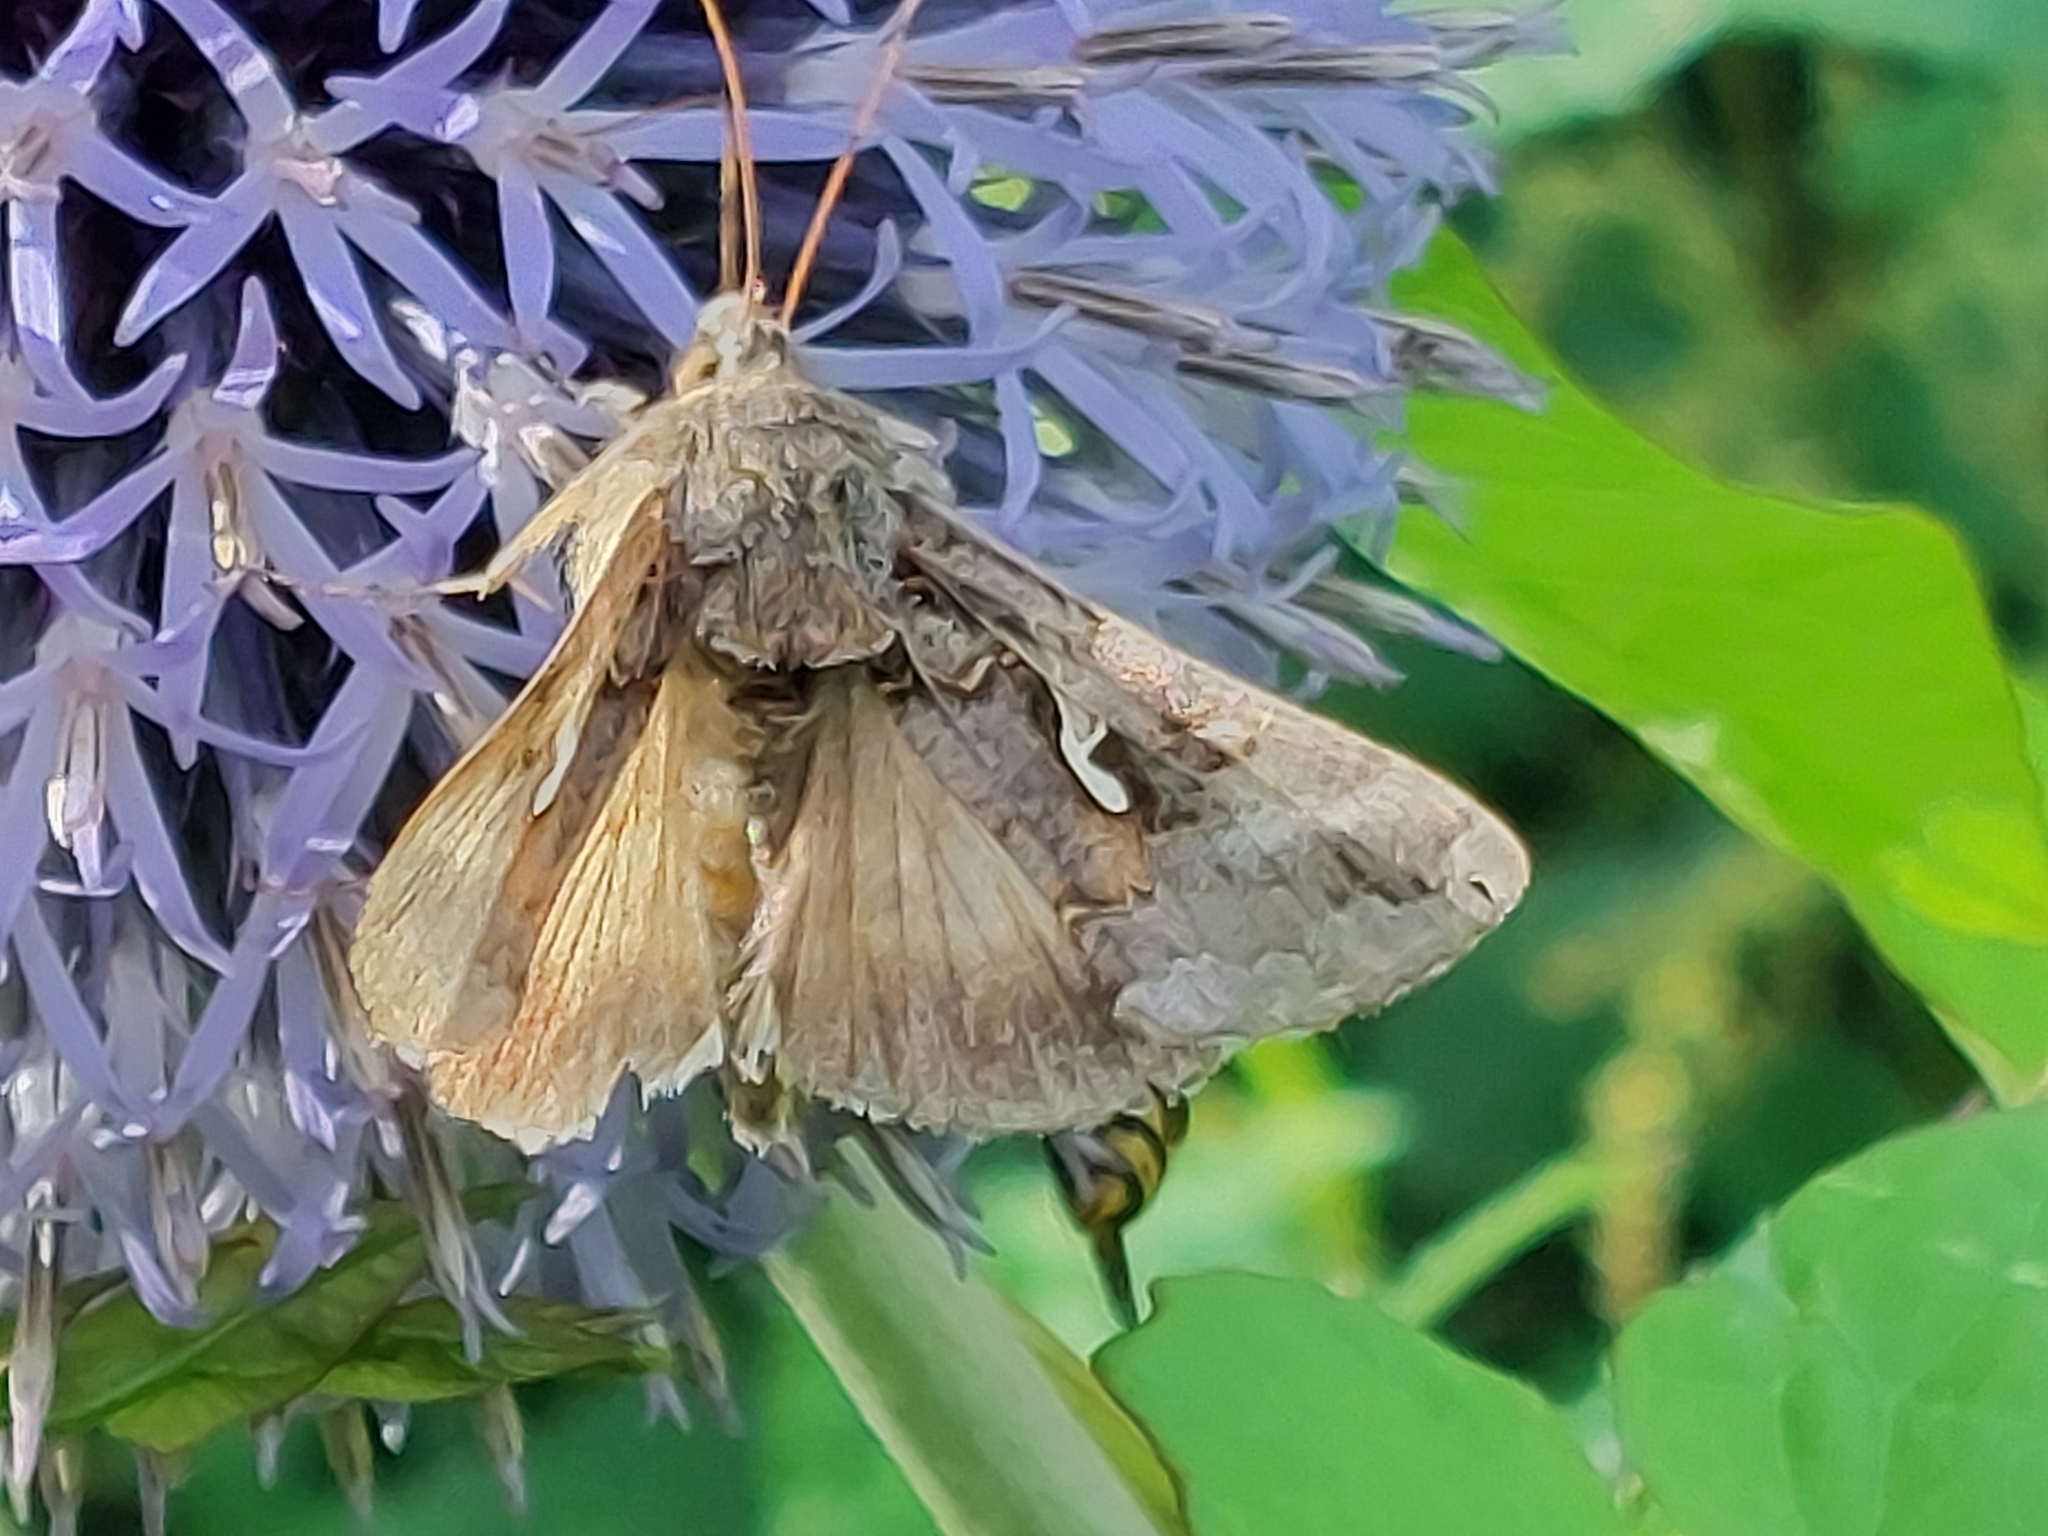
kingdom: Animalia
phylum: Arthropoda
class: Insecta
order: Lepidoptera
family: Noctuidae
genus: Autographa
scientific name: Autographa gamma
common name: Silver y
